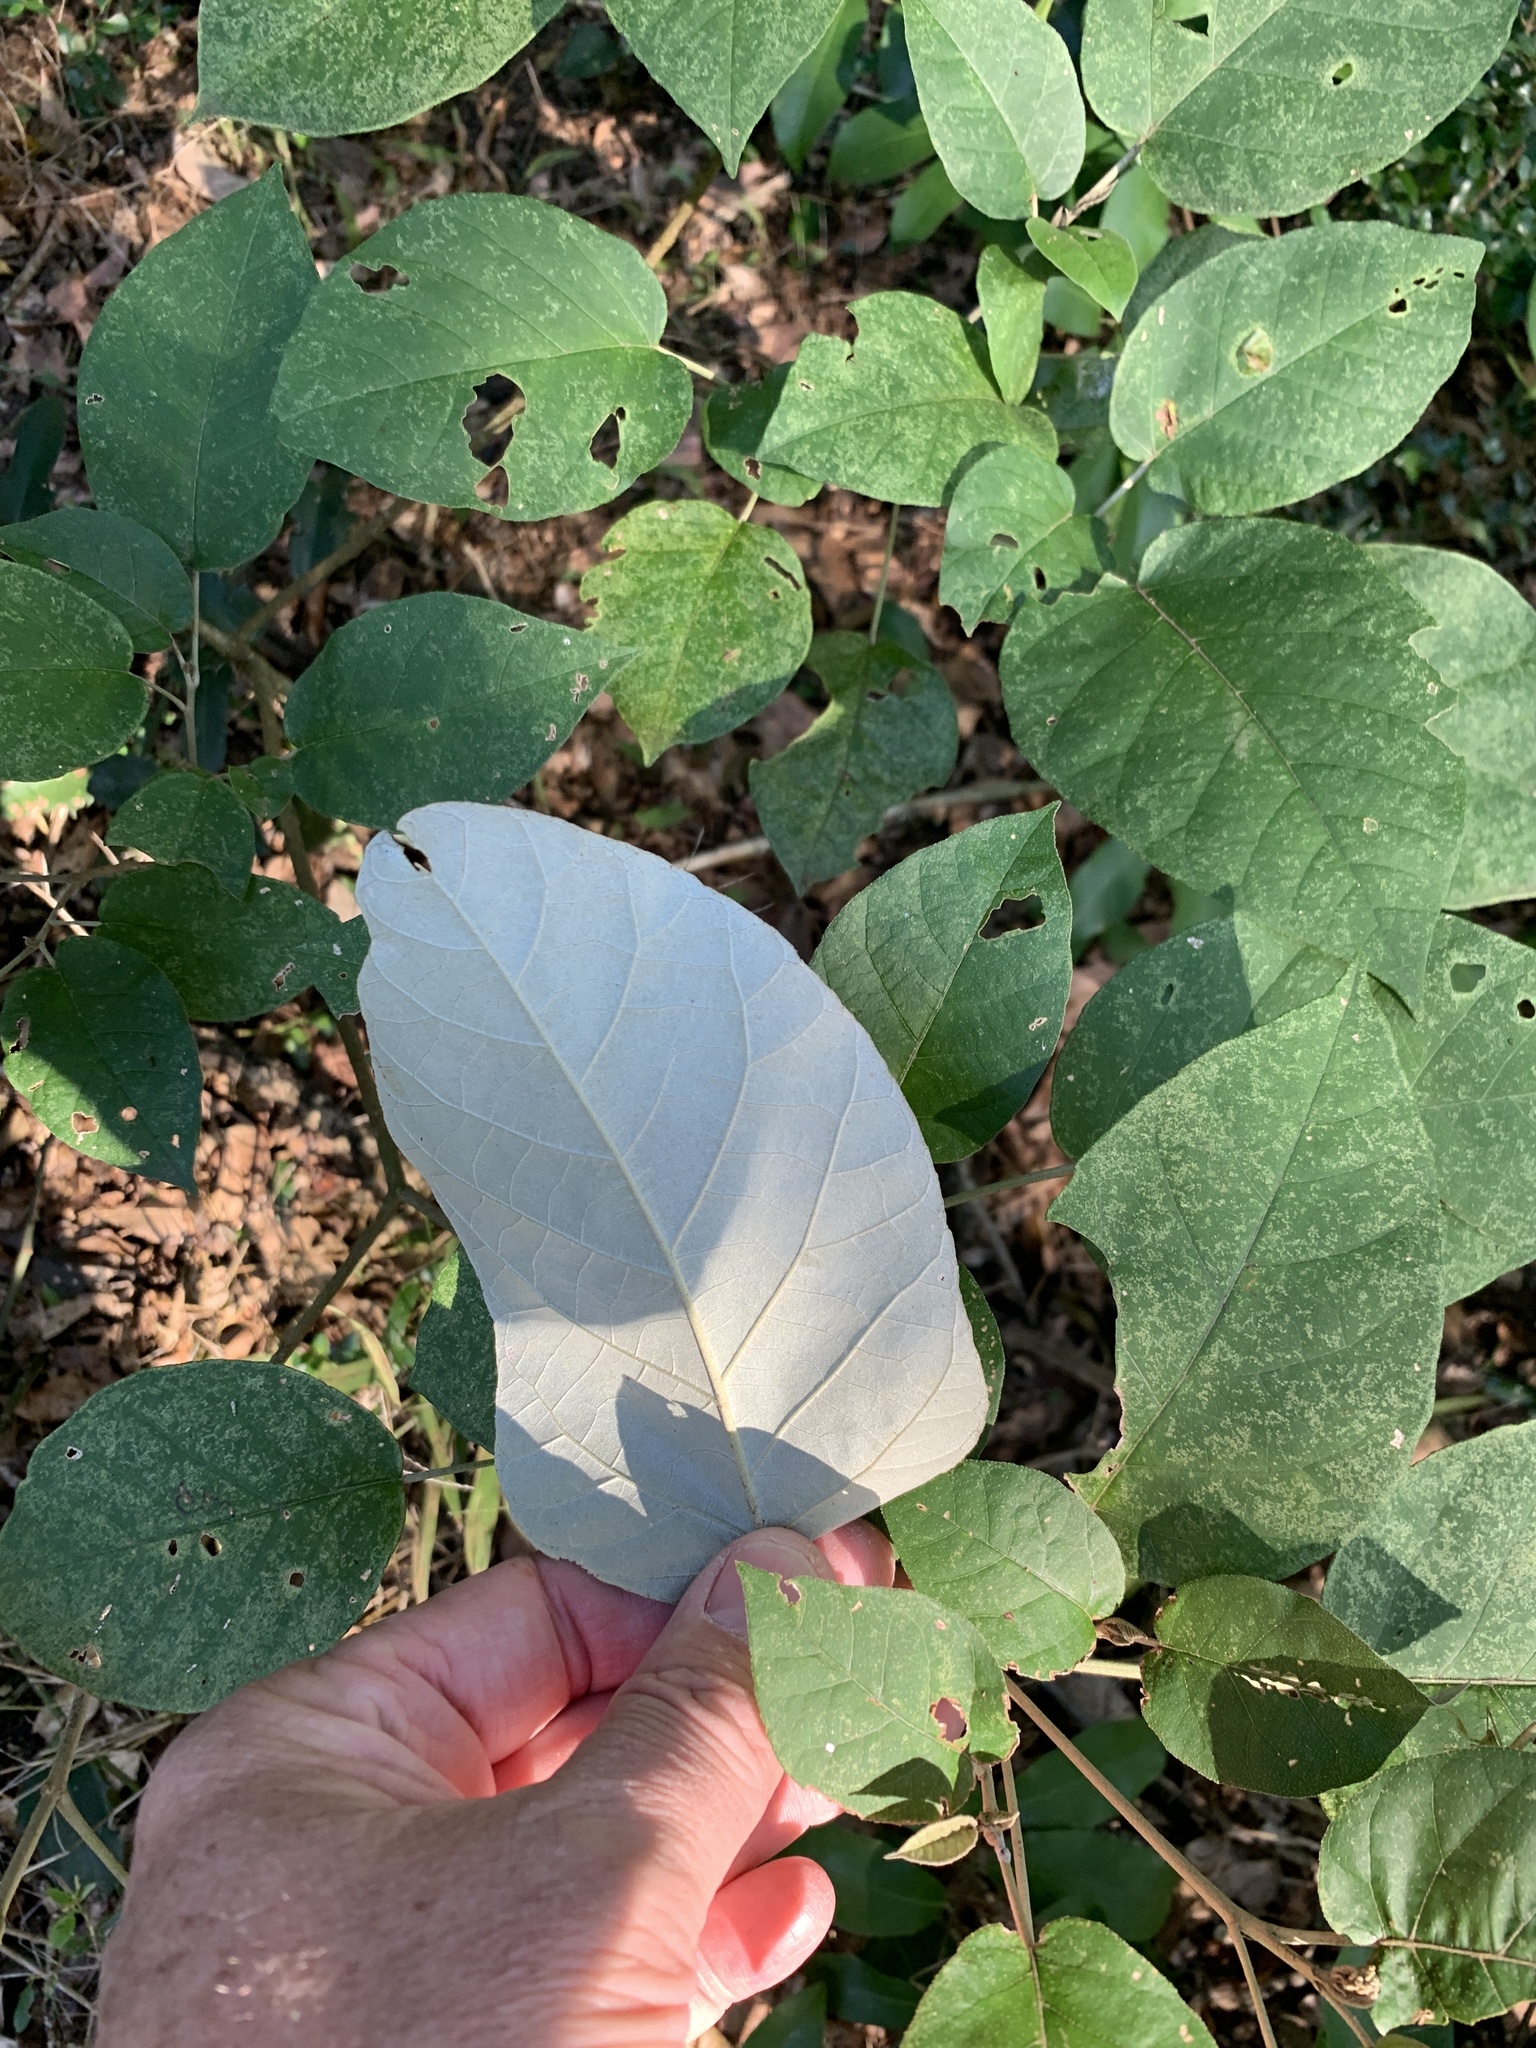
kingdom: Plantae
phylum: Tracheophyta
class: Magnoliopsida
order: Malpighiales
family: Euphorbiaceae
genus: Croton
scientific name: Croton steenkampianus
